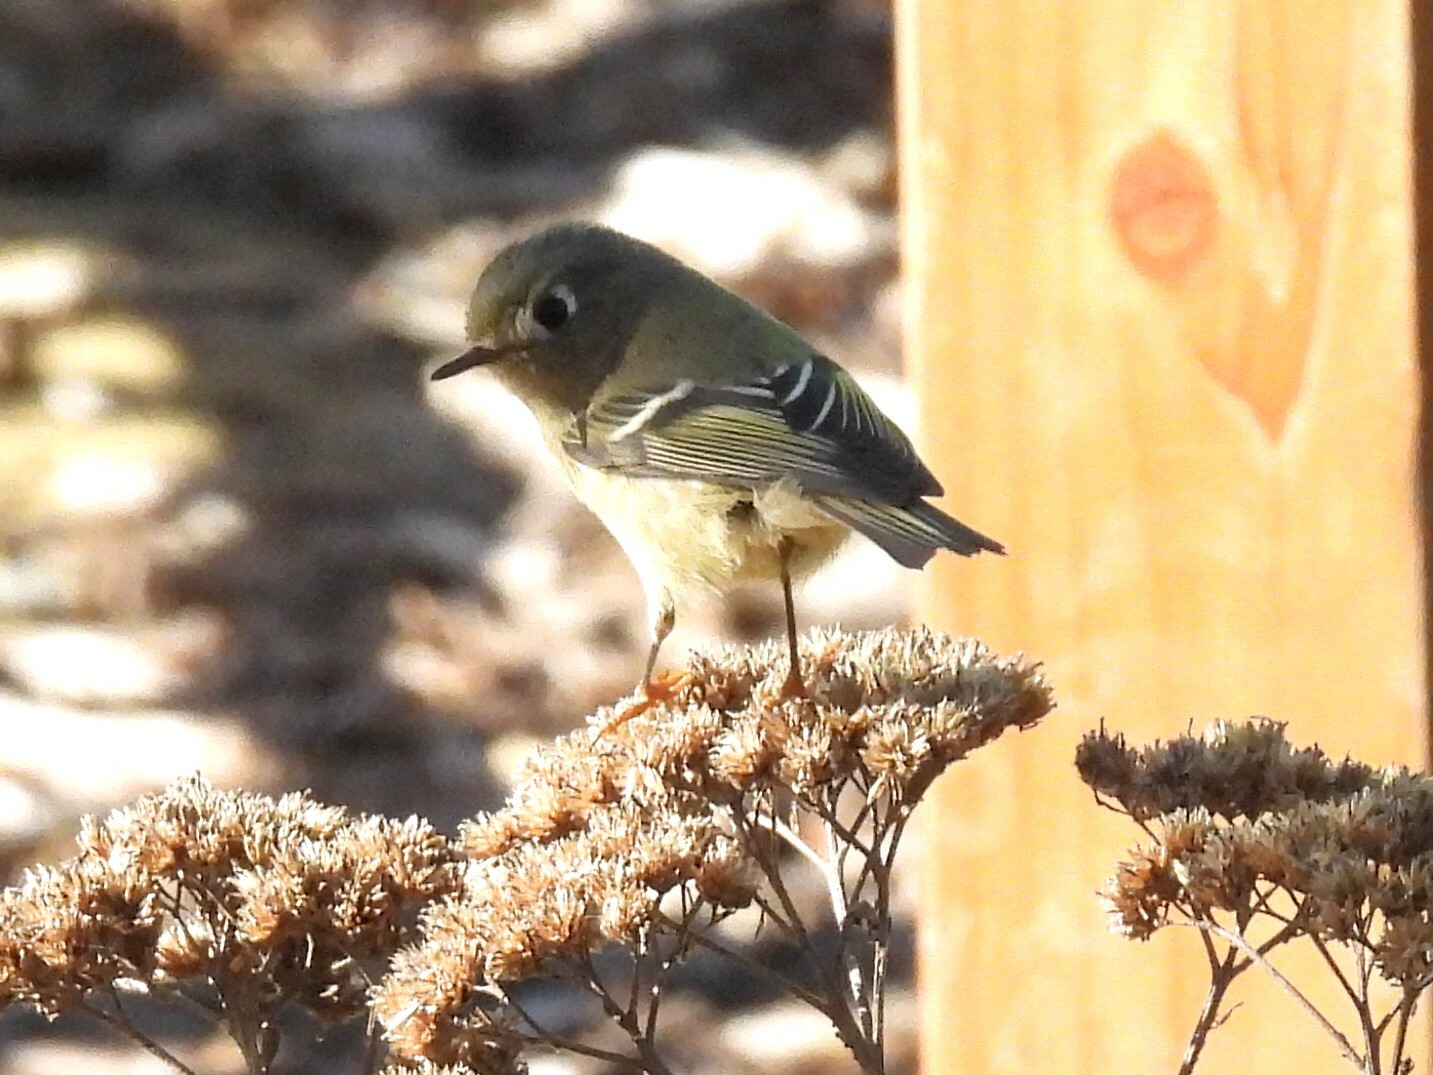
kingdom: Animalia
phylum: Chordata
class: Aves
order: Passeriformes
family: Regulidae
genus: Regulus
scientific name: Regulus calendula
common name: Ruby-crowned kinglet
